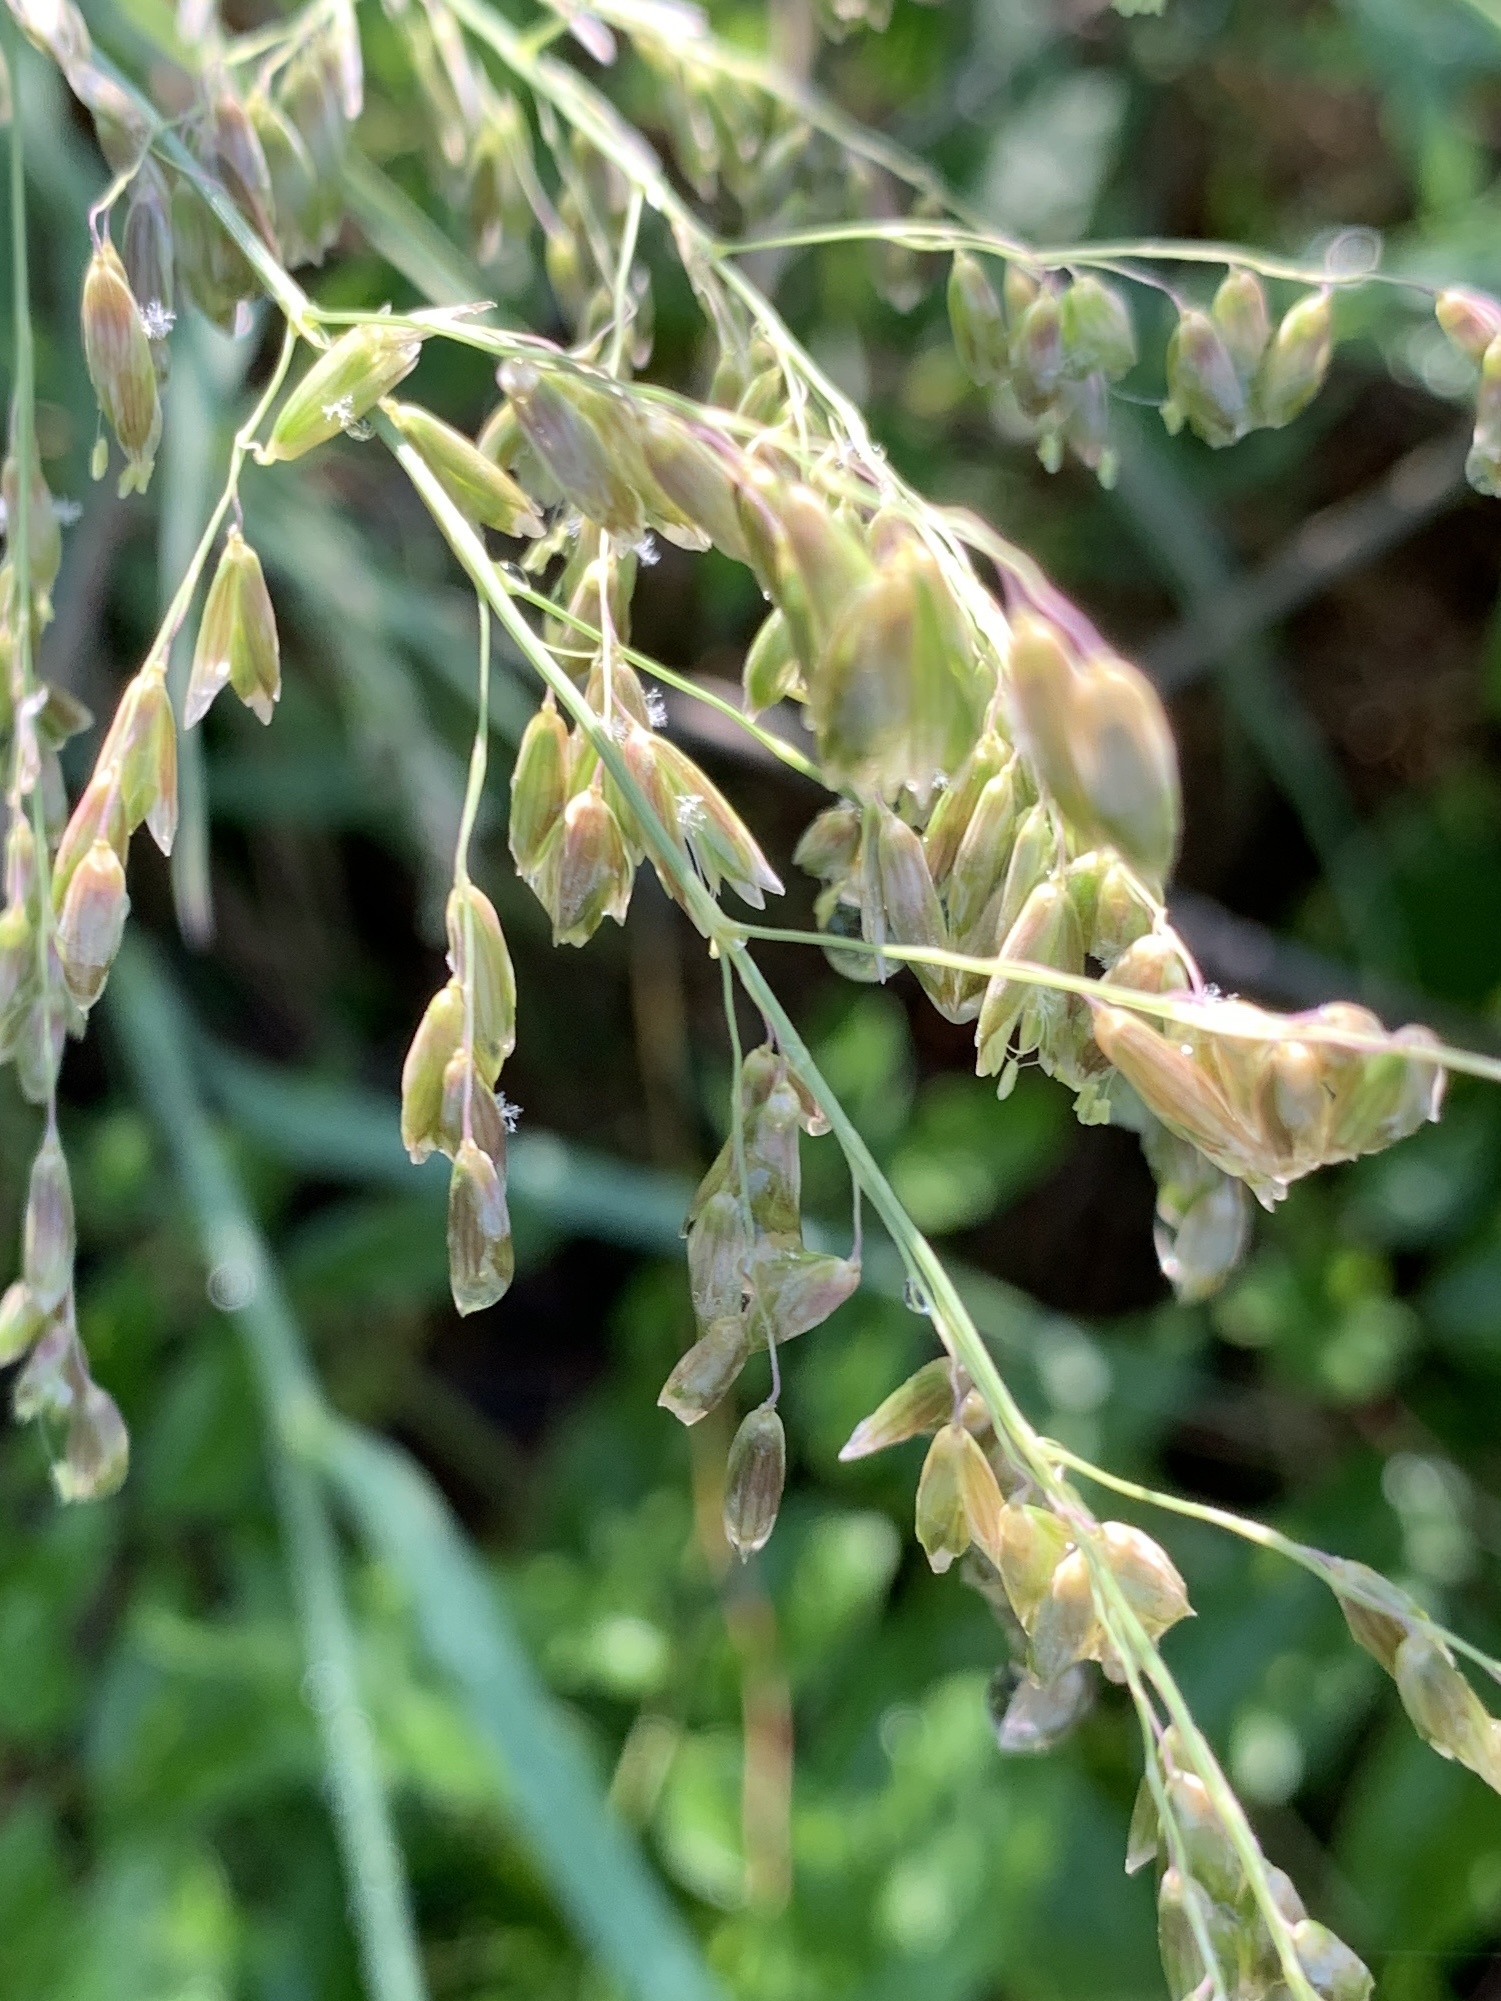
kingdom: Plantae
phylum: Tracheophyta
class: Liliopsida
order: Poales
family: Poaceae
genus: Melica
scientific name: Melica nitens
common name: Three-flower melic
